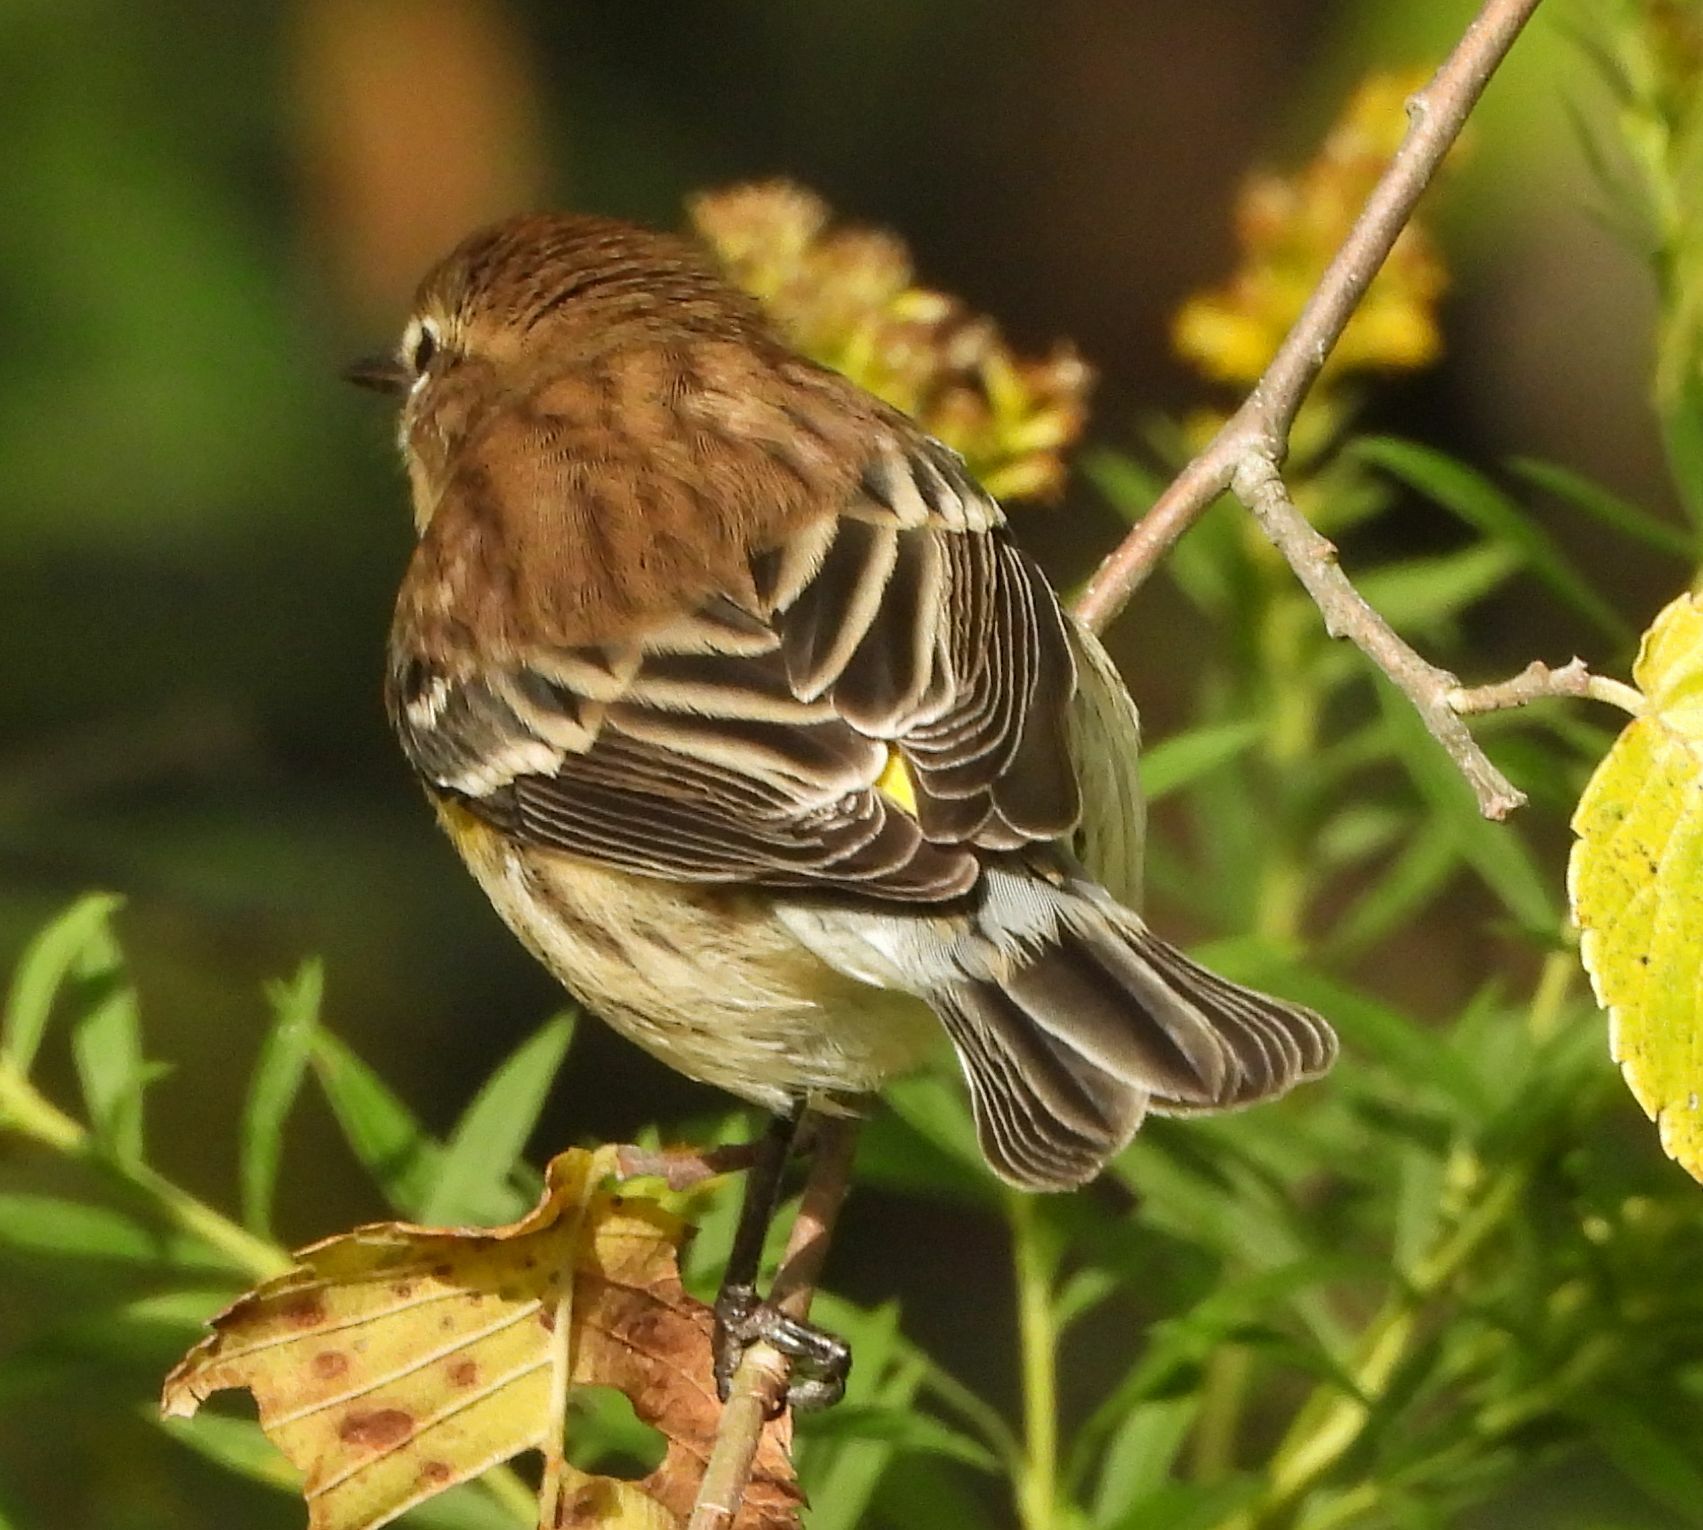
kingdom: Animalia
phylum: Chordata
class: Aves
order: Passeriformes
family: Parulidae
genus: Setophaga
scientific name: Setophaga coronata
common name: Myrtle warbler
